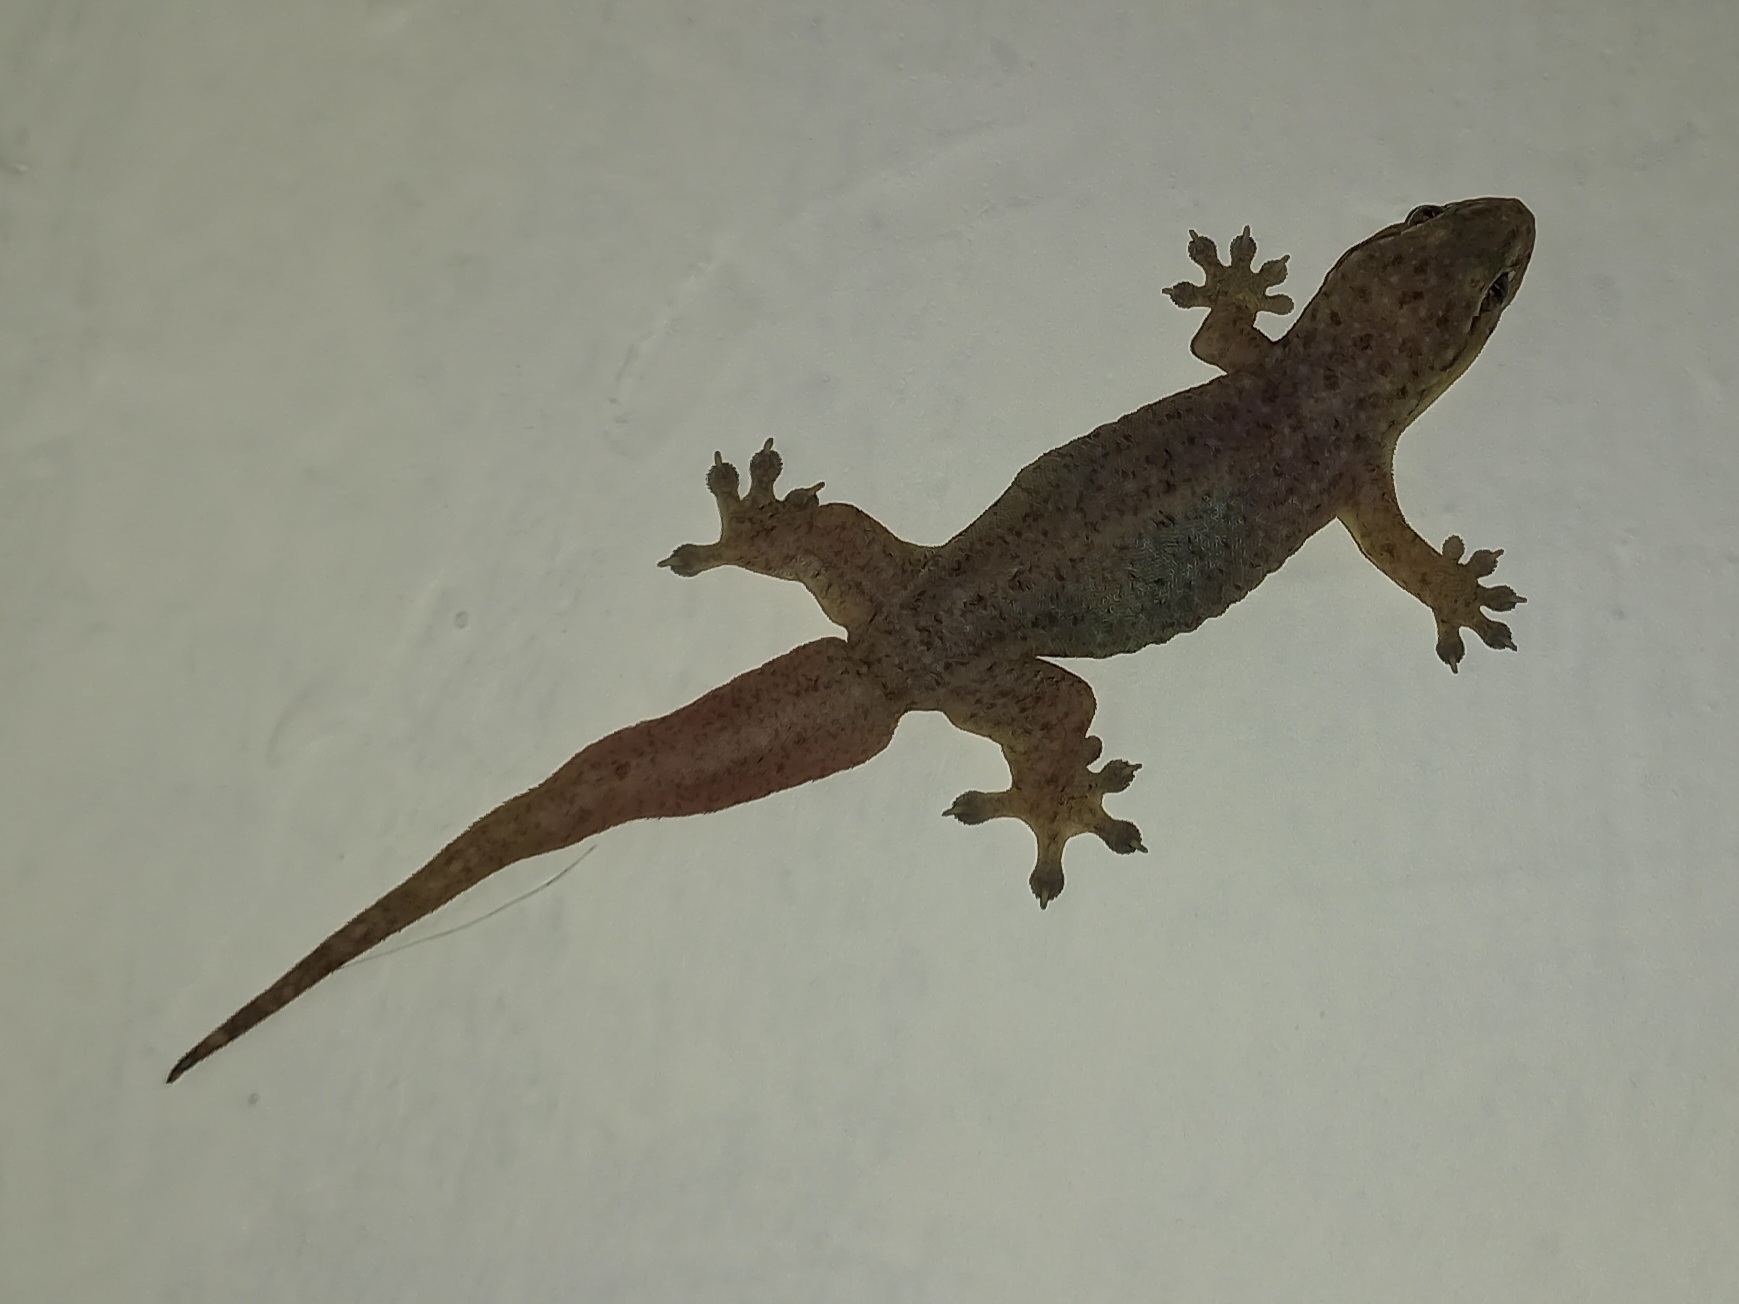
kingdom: Animalia
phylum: Chordata
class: Squamata
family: Gekkonidae
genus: Gehyra
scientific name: Gehyra mutilata
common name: Stump-toed gecko
